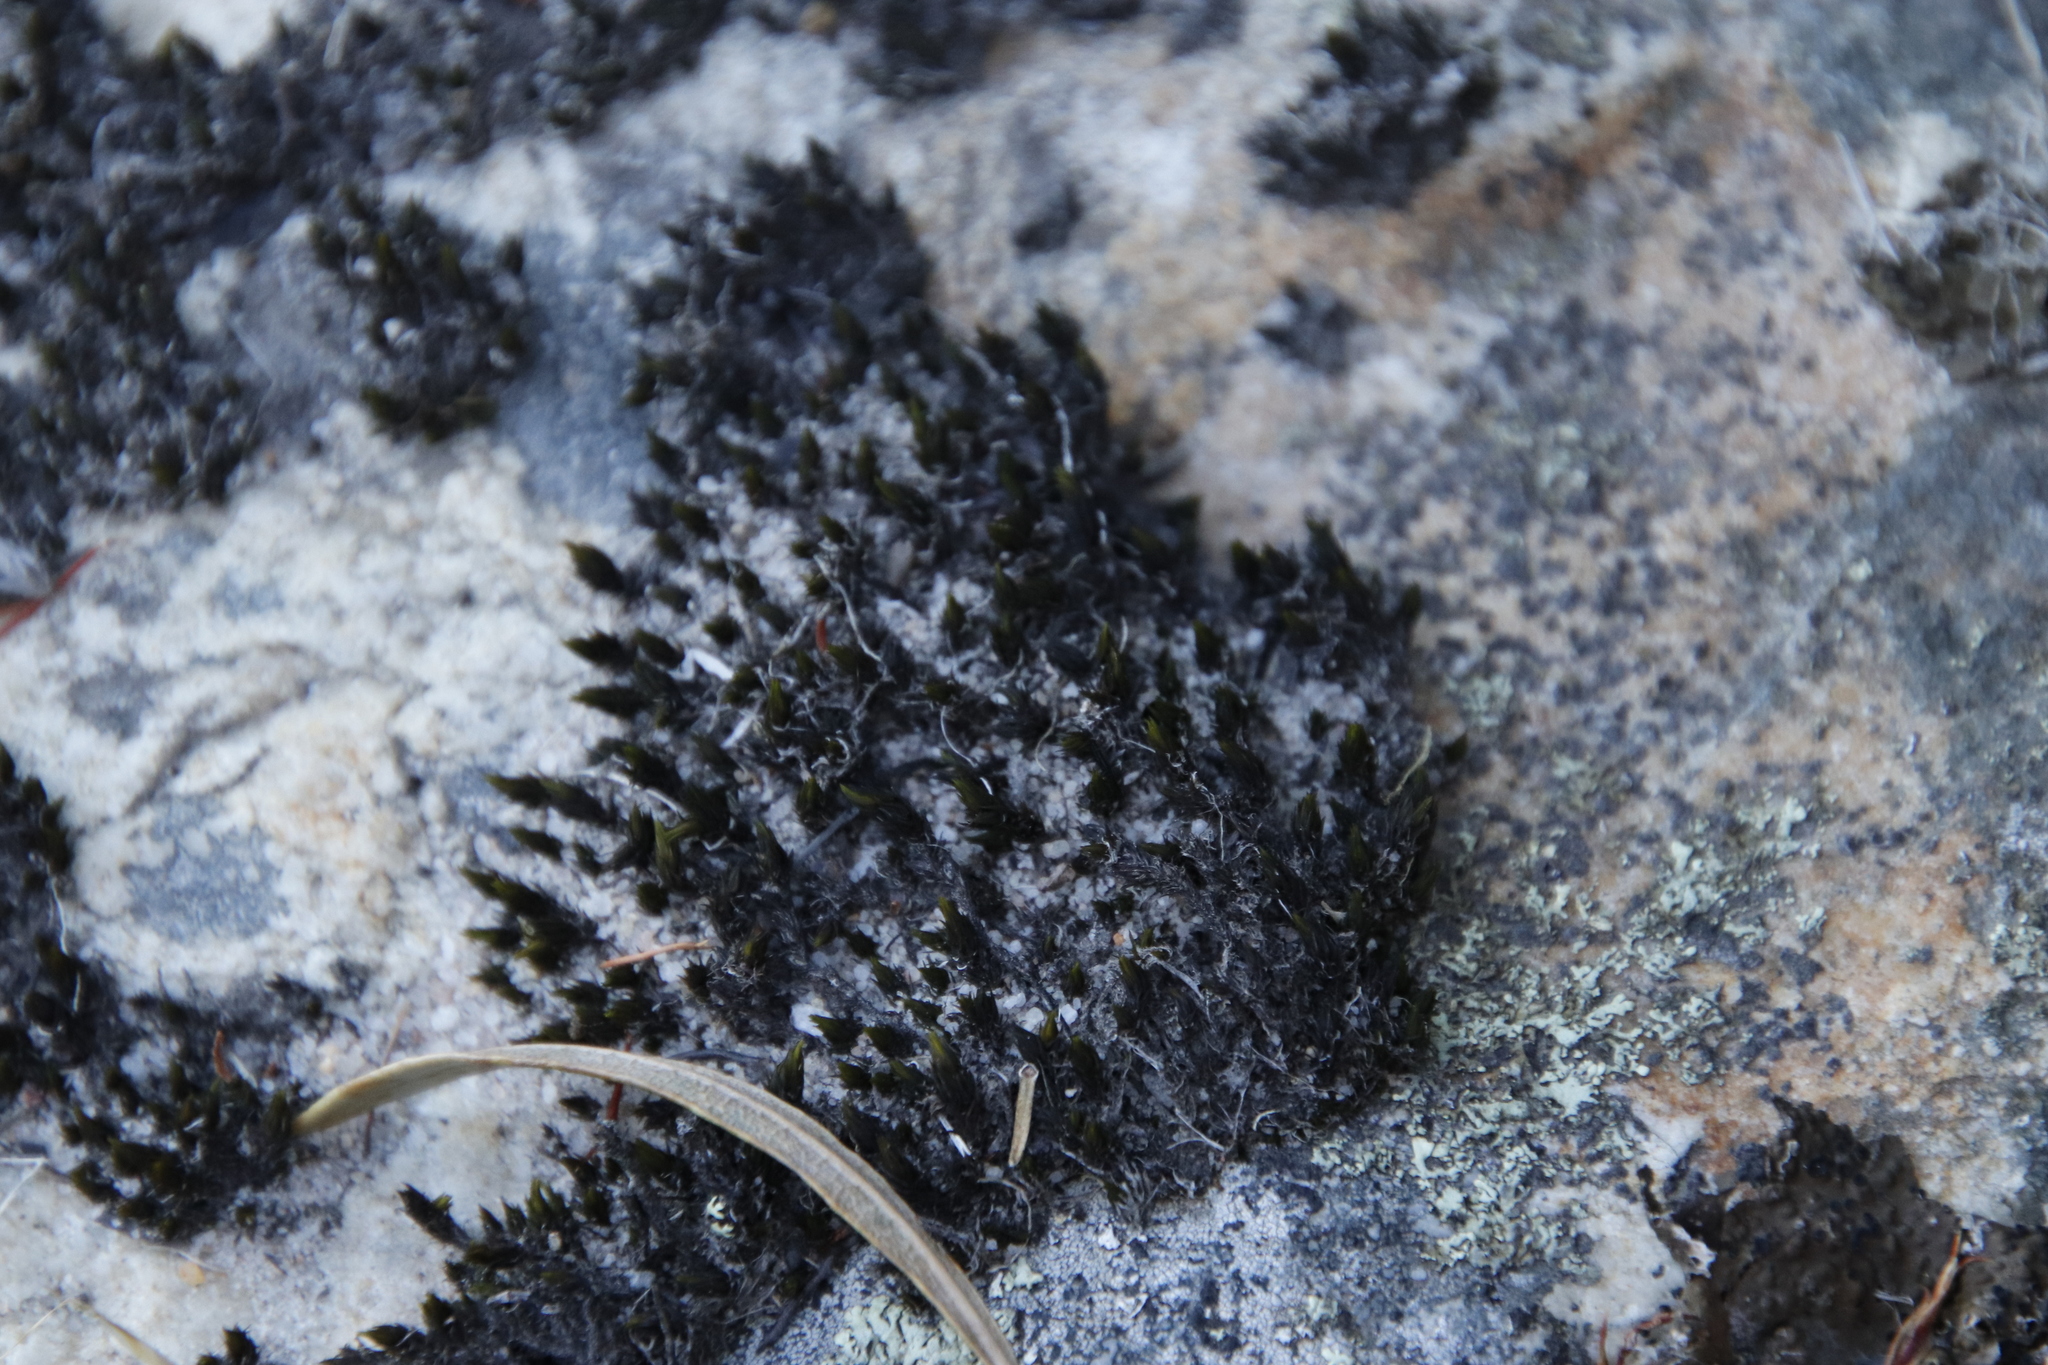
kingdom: Plantae
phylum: Bryophyta
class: Bryopsida
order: Grimmiales
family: Grimmiaceae
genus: Bucklandiella
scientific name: Bucklandiella lamprocarpa
